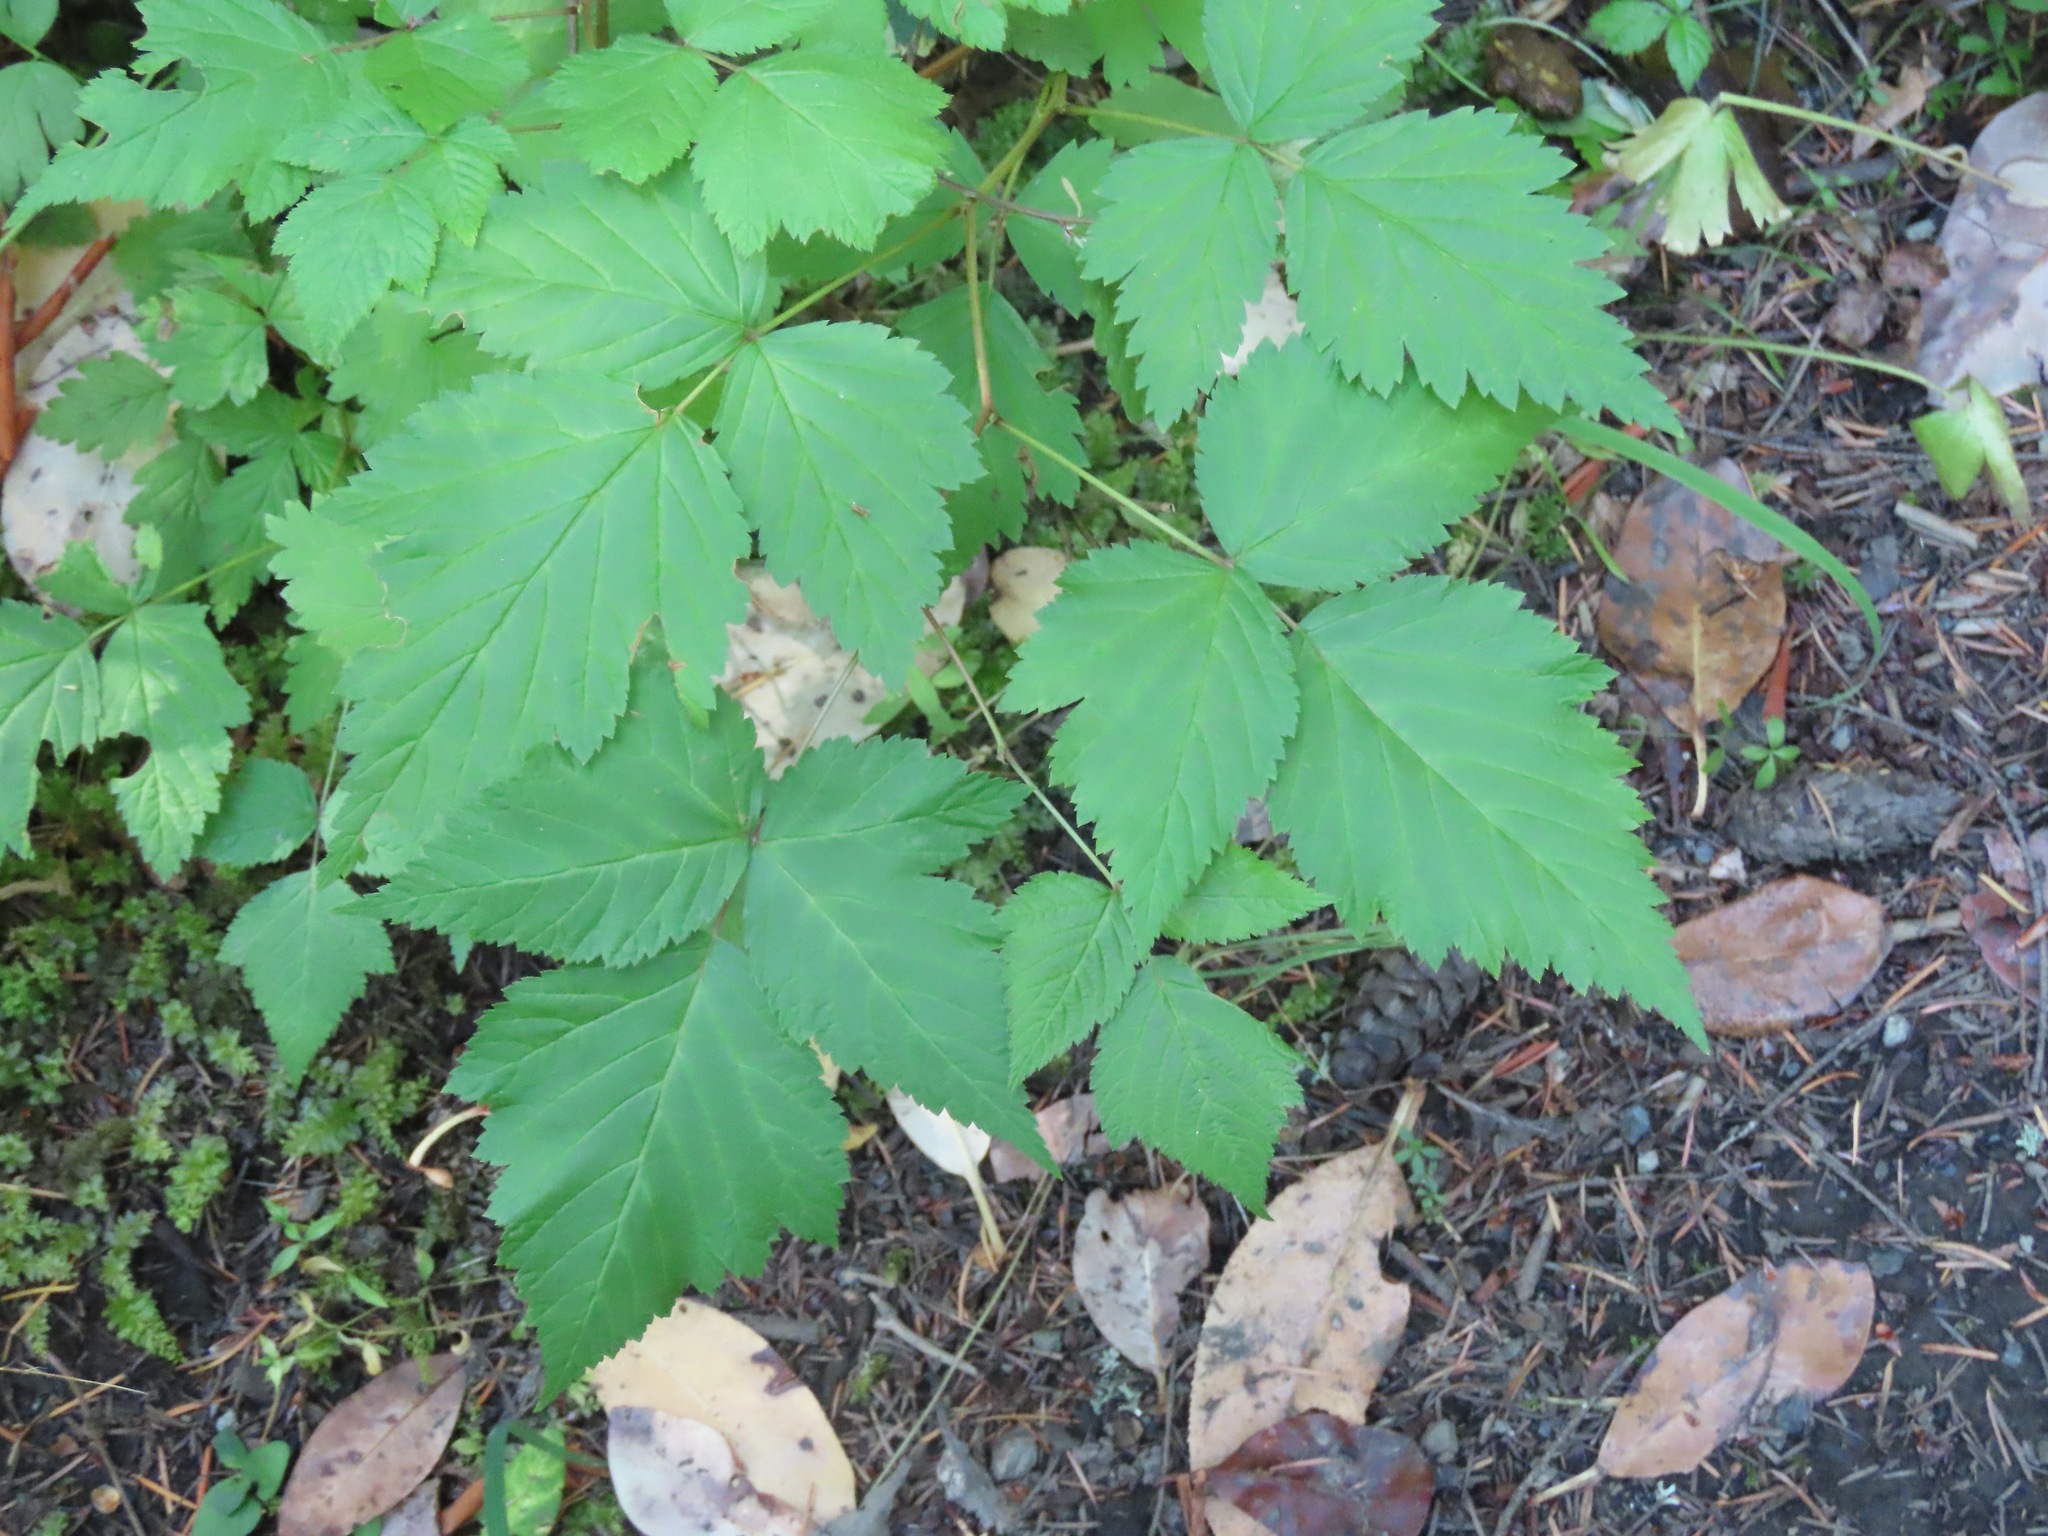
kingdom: Plantae
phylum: Tracheophyta
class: Magnoliopsida
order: Rosales
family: Rosaceae
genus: Rubus
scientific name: Rubus spectabilis
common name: Salmonberry
